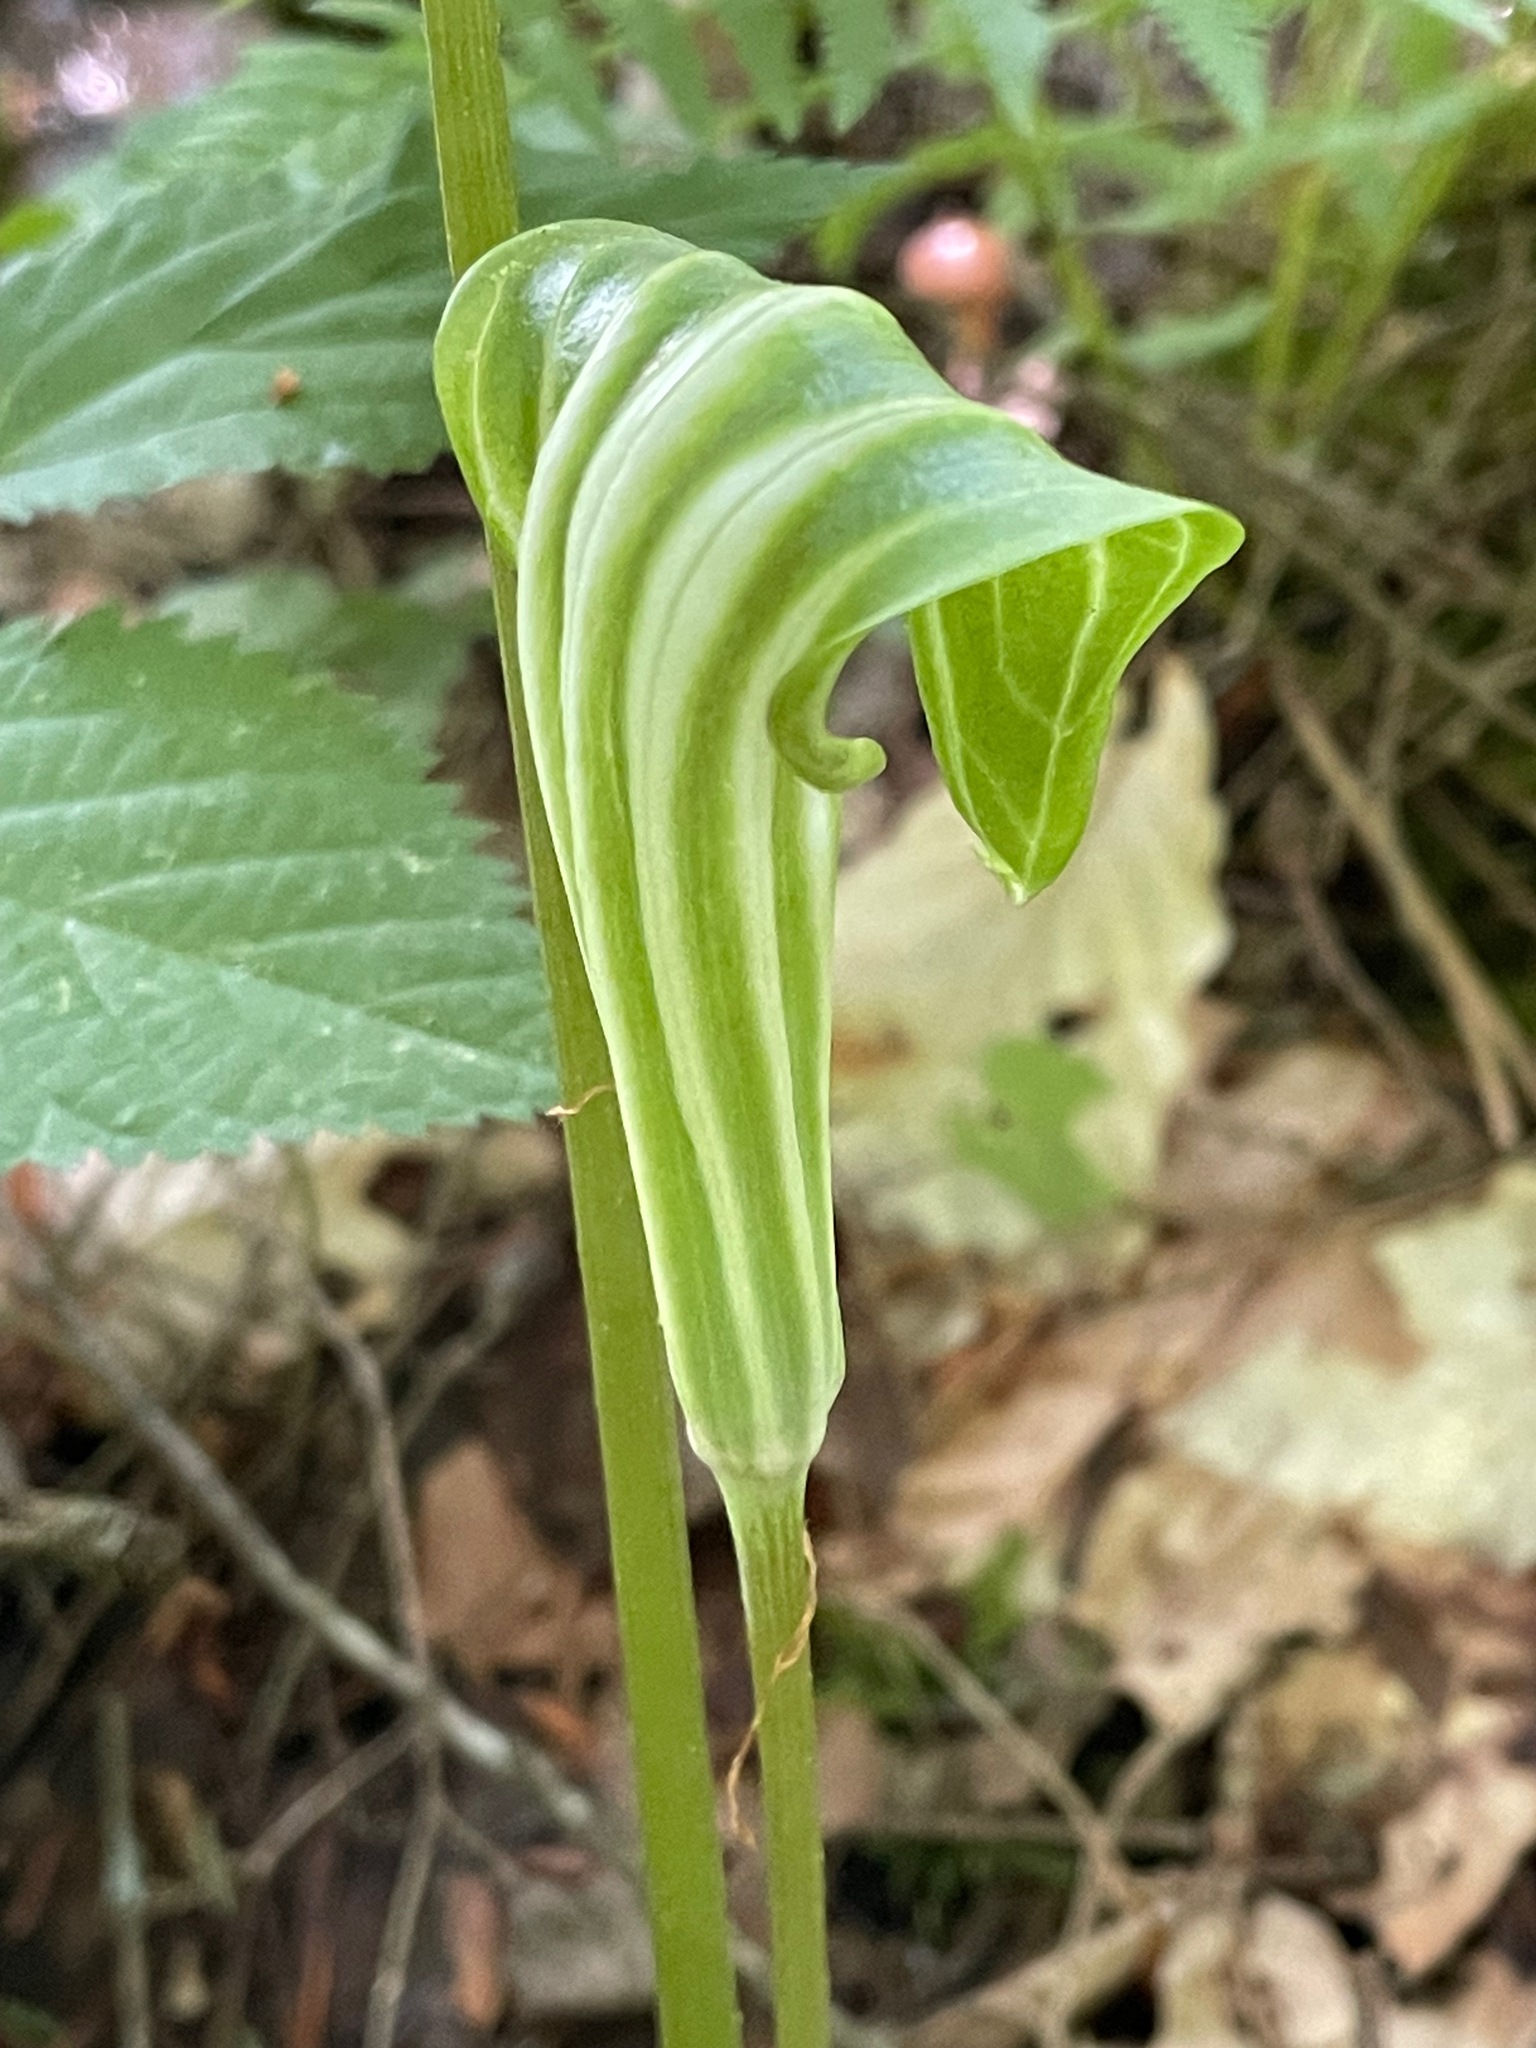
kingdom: Plantae
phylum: Tracheophyta
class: Liliopsida
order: Alismatales
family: Araceae
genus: Arisaema
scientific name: Arisaema stewardsonii
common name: Swamp jack-in-the-pulpit
